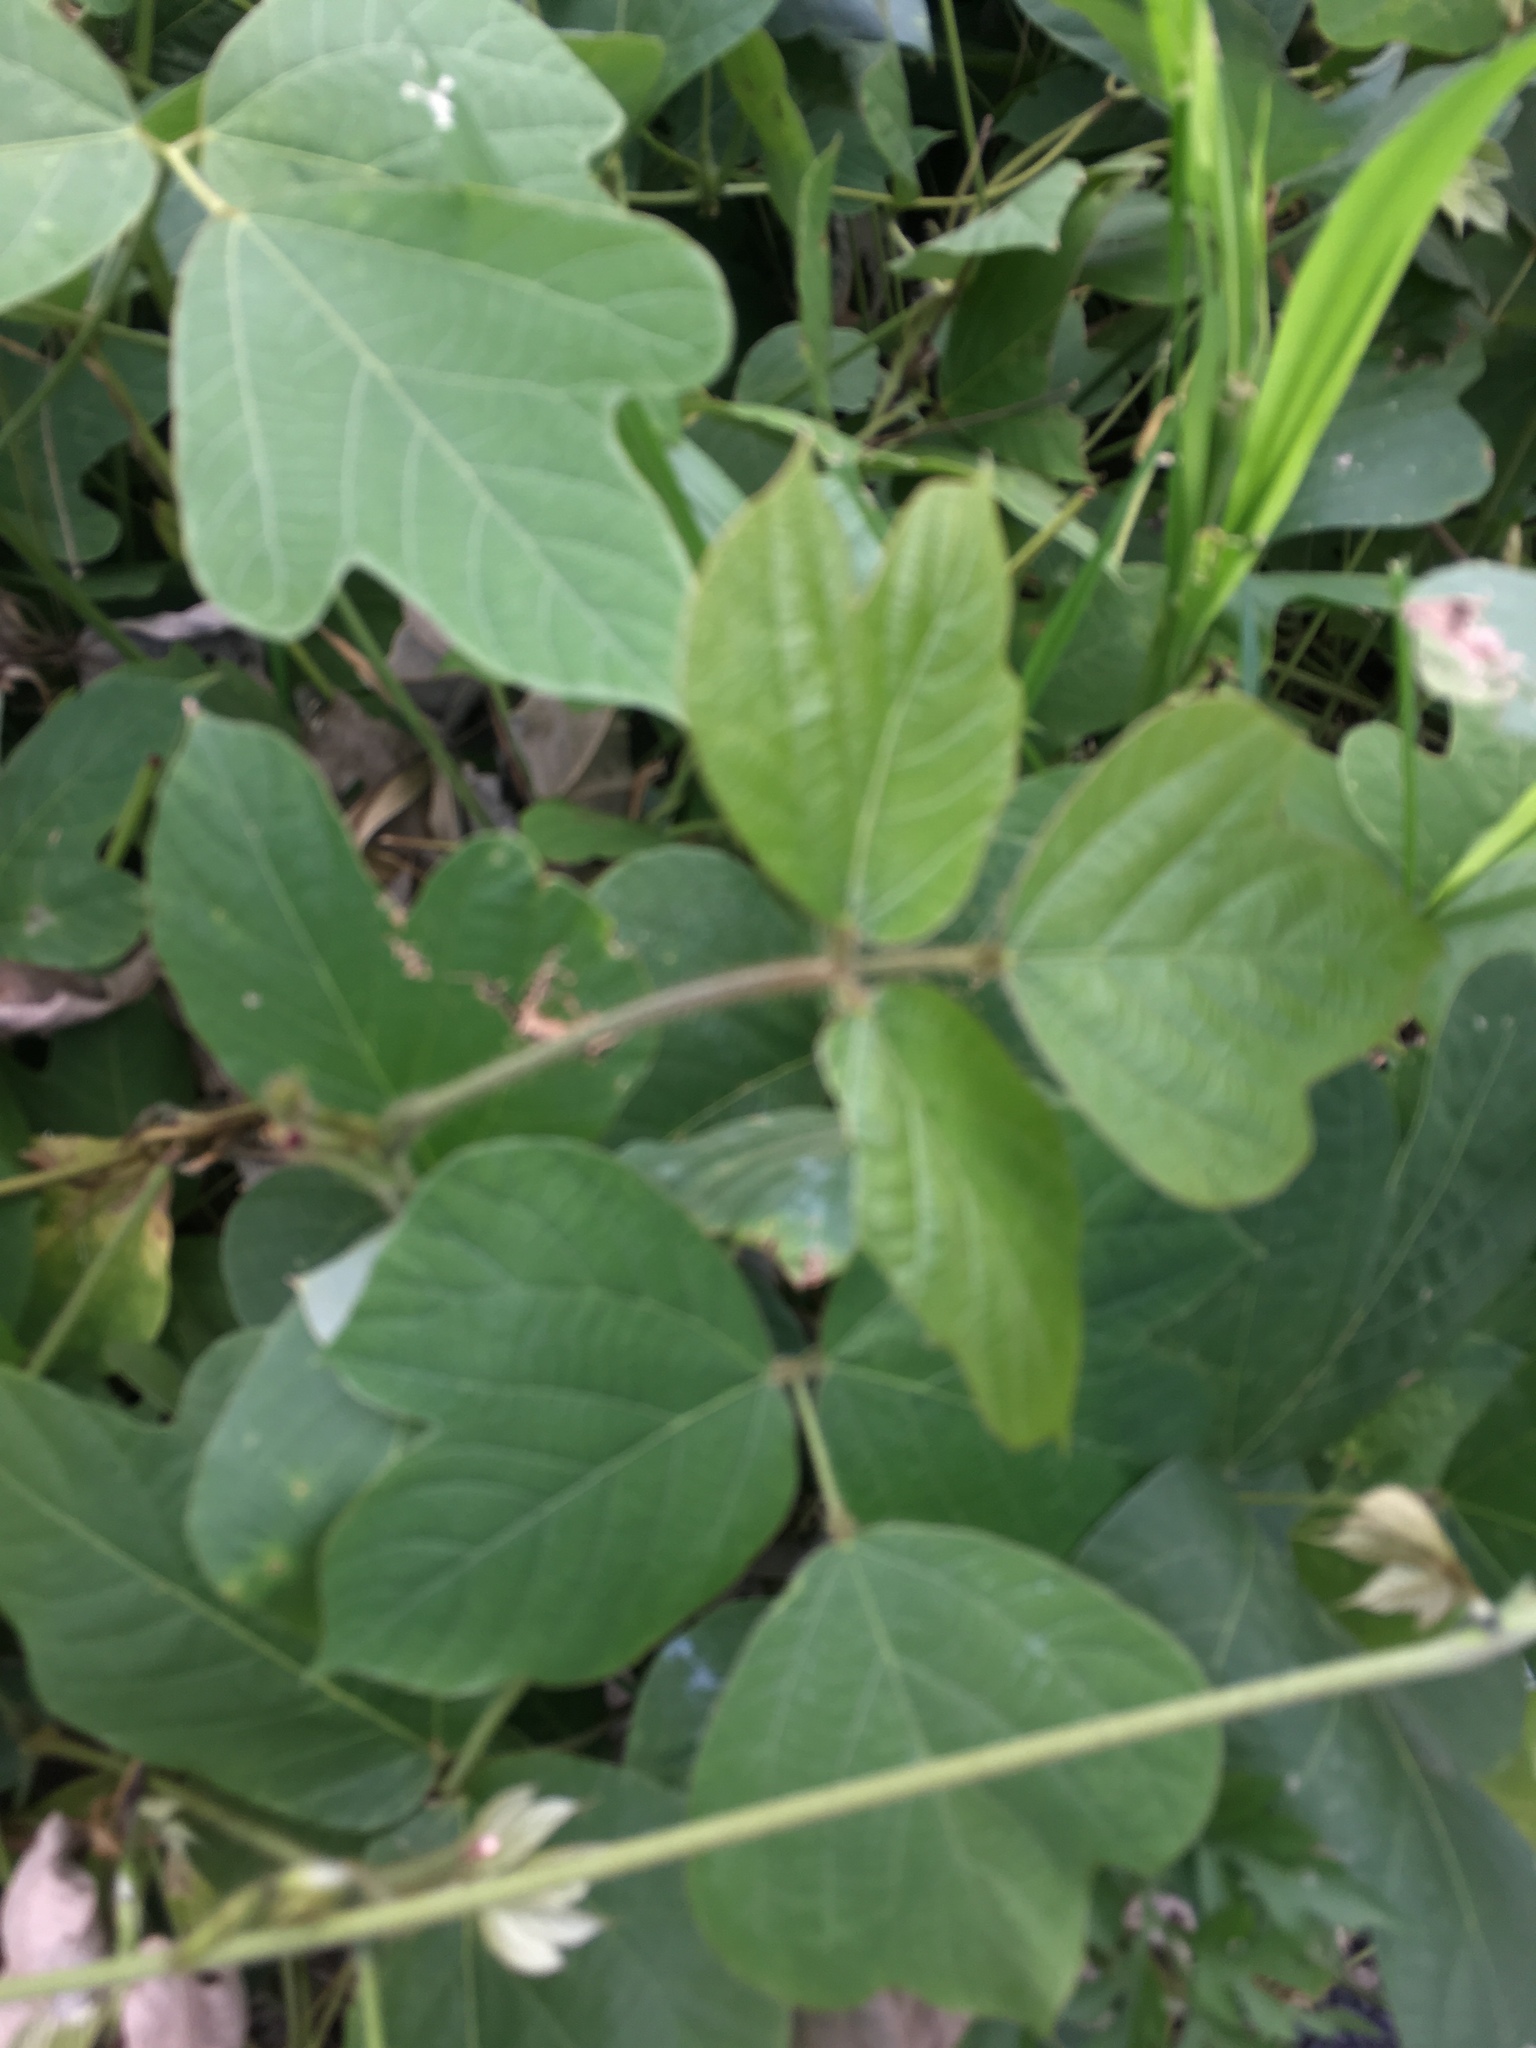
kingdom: Plantae
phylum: Tracheophyta
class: Magnoliopsida
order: Fabales
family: Fabaceae
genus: Pueraria
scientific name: Pueraria montana
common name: Kudzu
